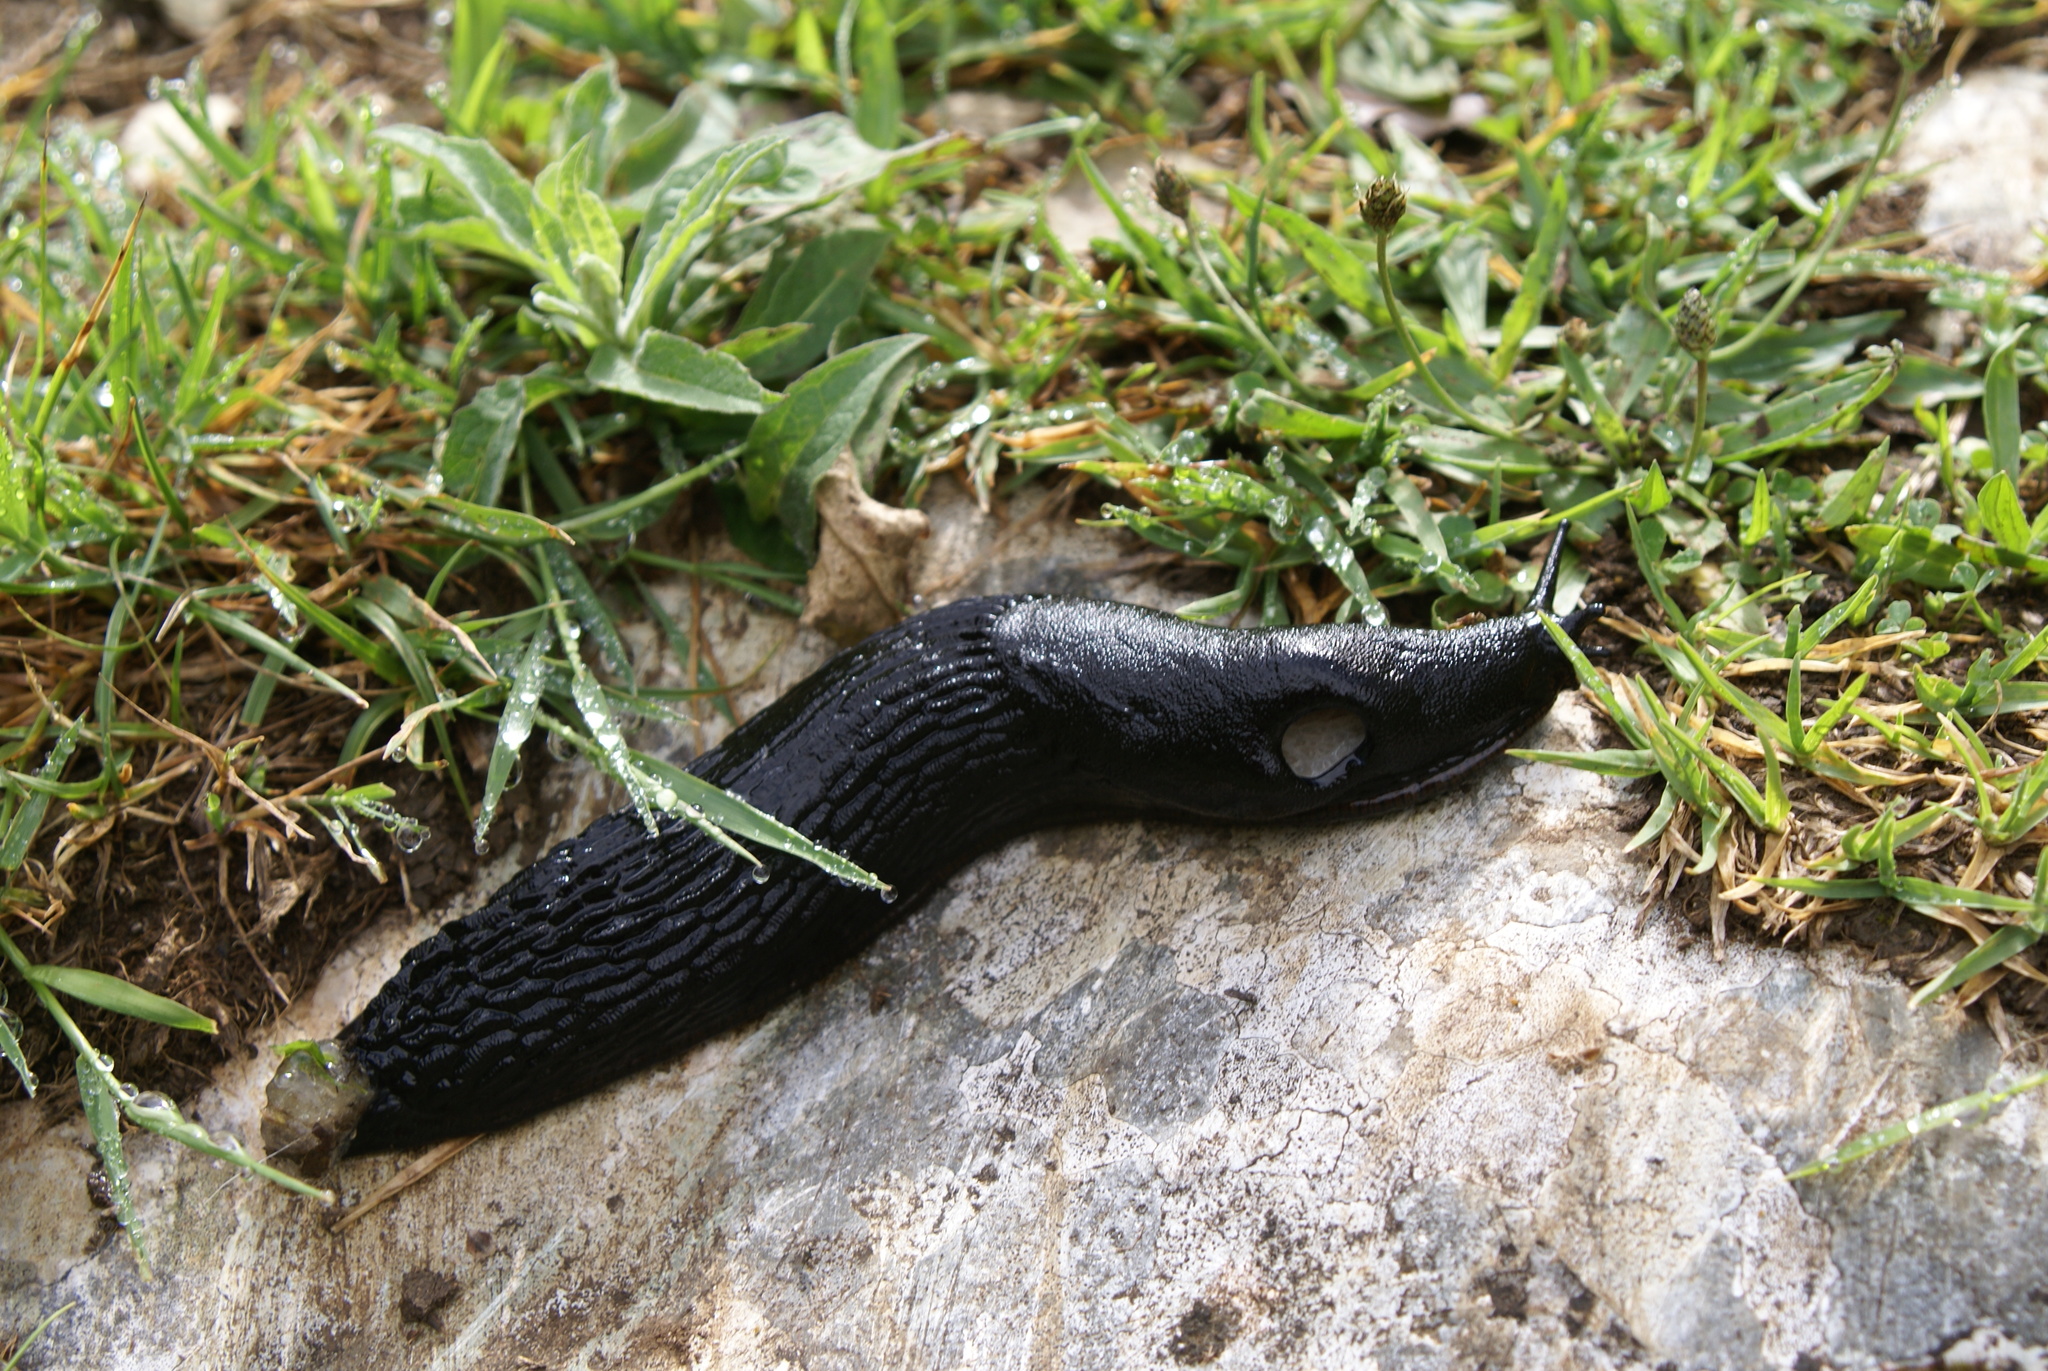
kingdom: Animalia
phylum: Mollusca
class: Gastropoda
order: Stylommatophora
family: Arionidae
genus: Arion
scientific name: Arion ater
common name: Black arion
